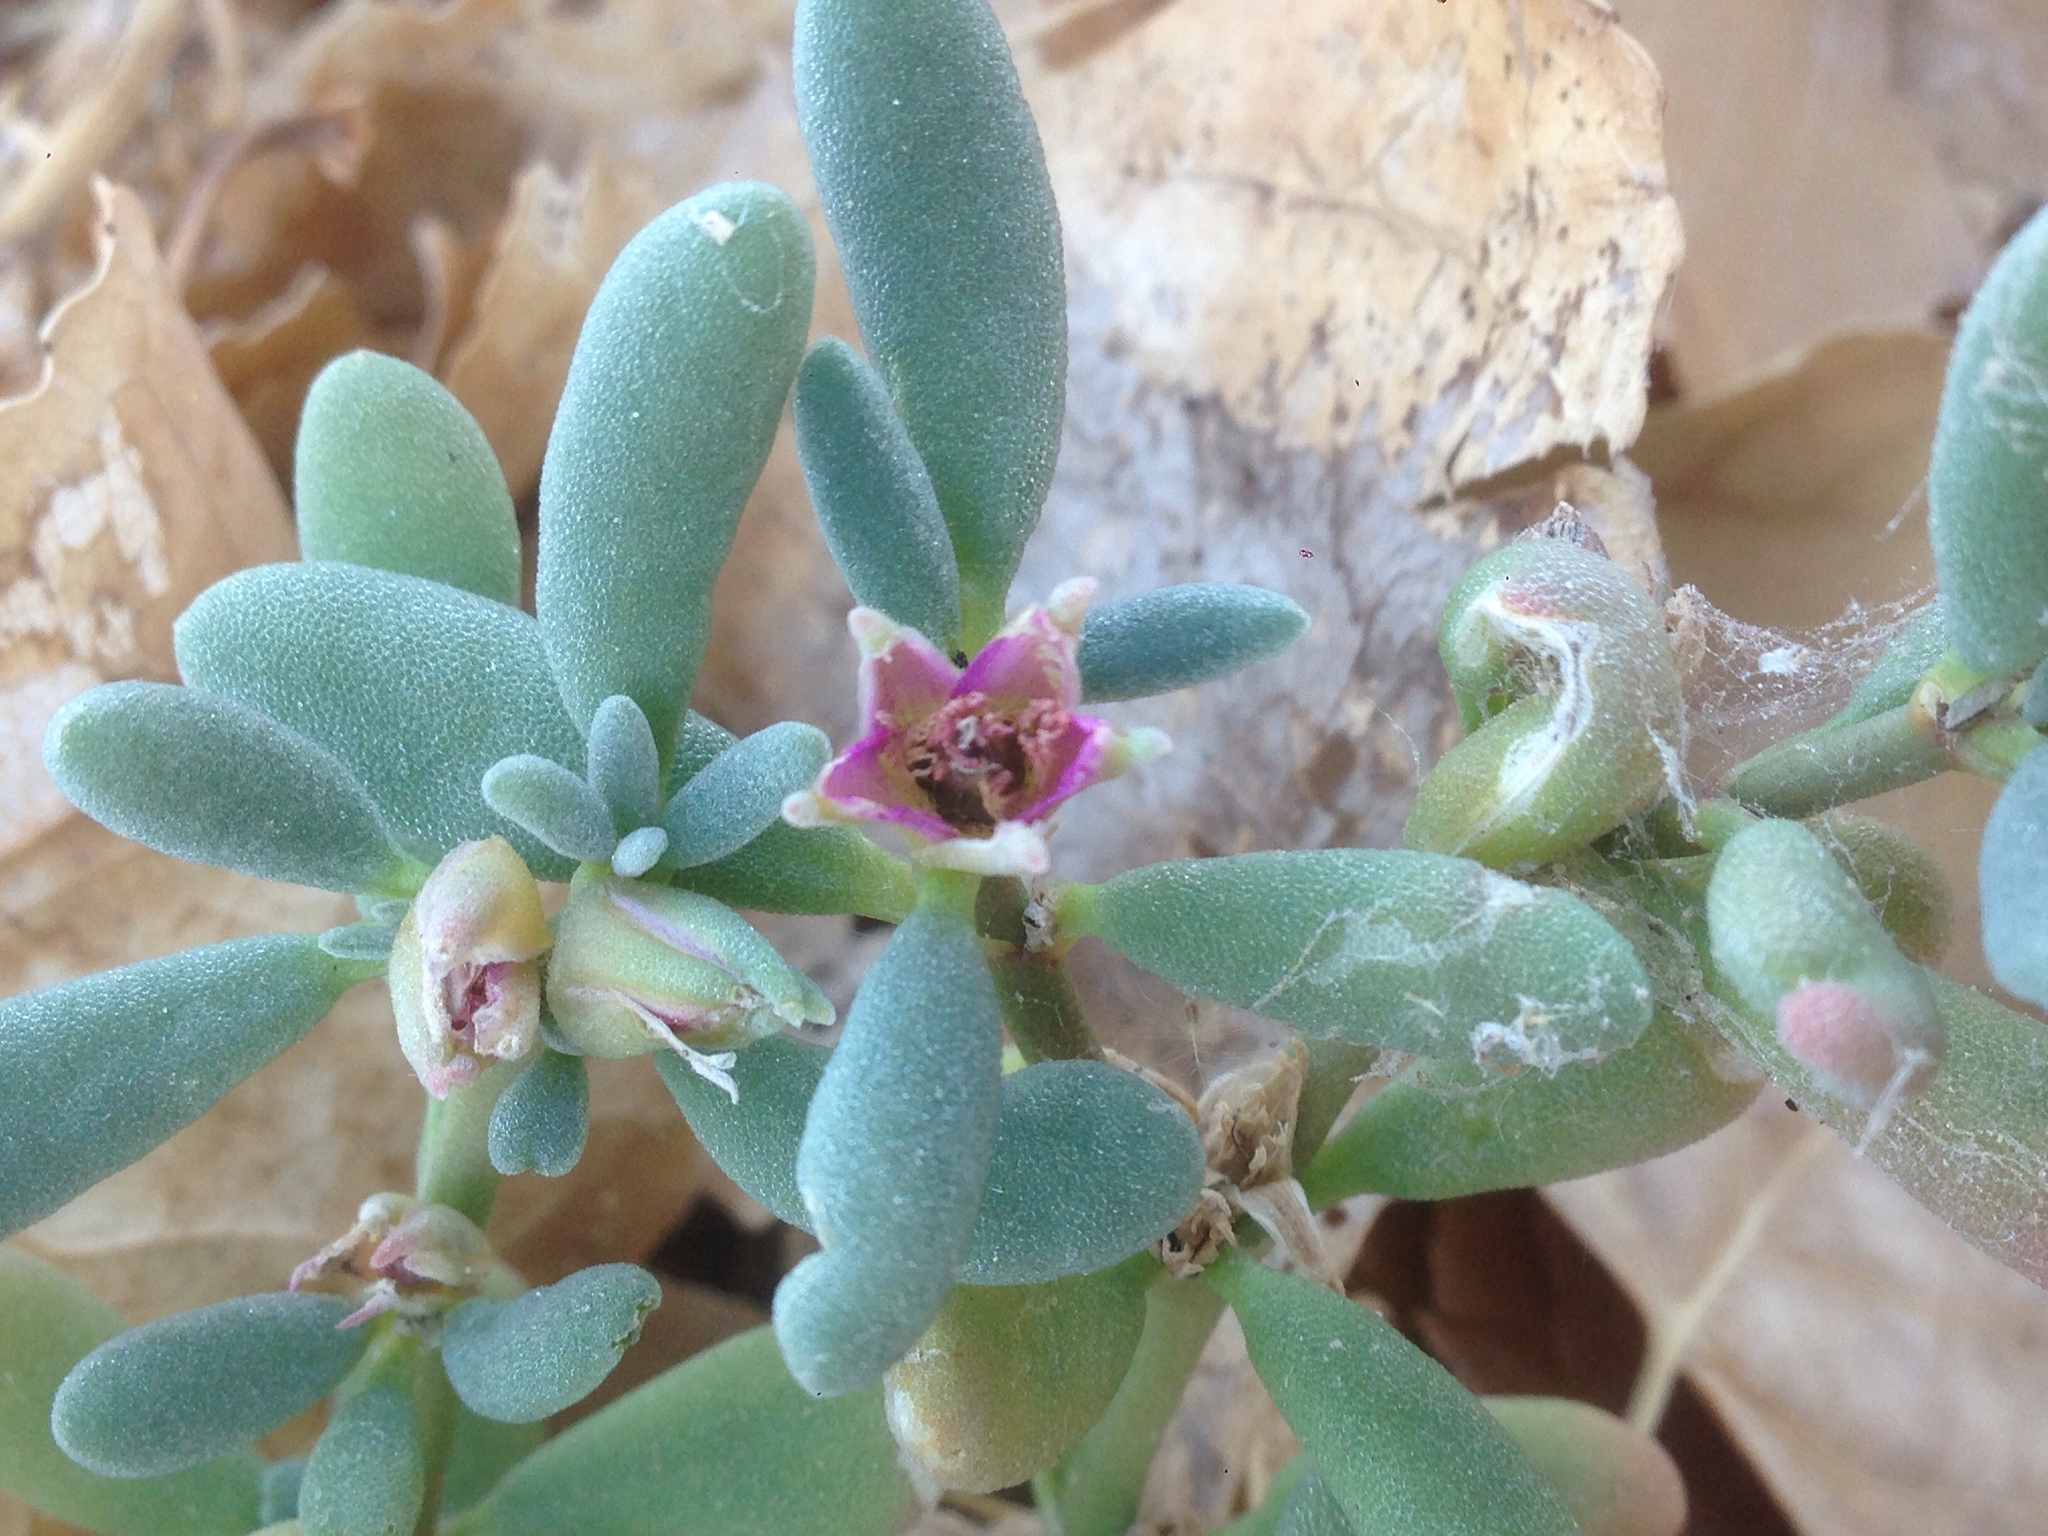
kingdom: Plantae
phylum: Tracheophyta
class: Magnoliopsida
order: Caryophyllales
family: Aizoaceae
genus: Sesuvium
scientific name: Sesuvium revolutifolium
